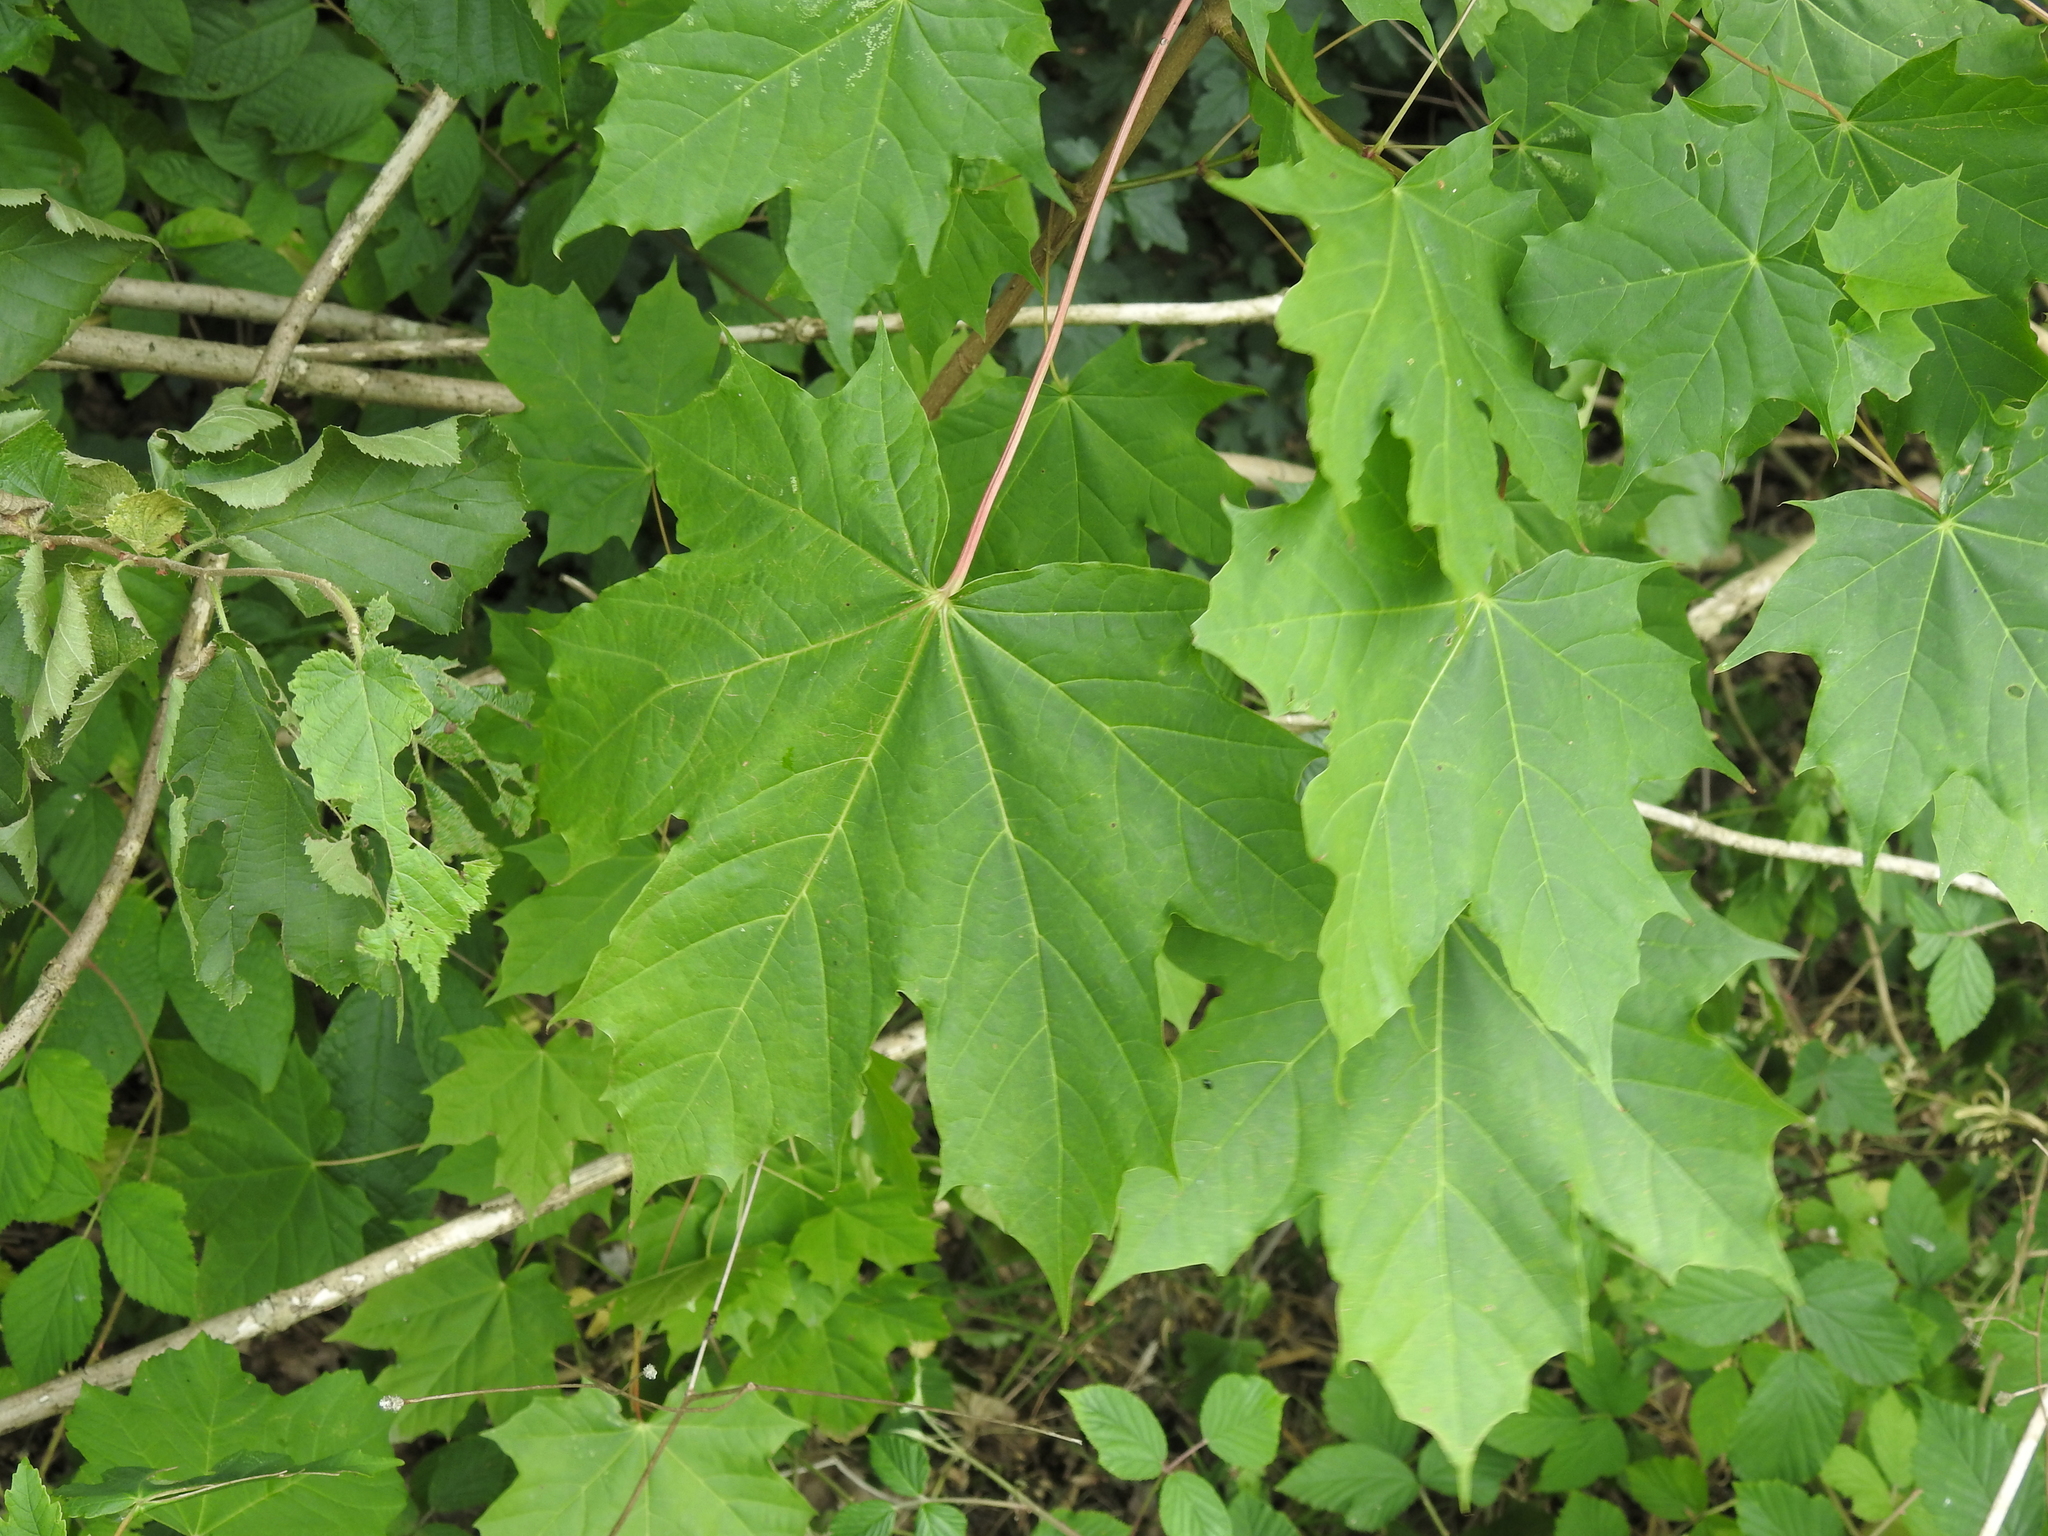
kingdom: Plantae
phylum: Tracheophyta
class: Magnoliopsida
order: Sapindales
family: Sapindaceae
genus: Acer
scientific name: Acer platanoides
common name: Norway maple
